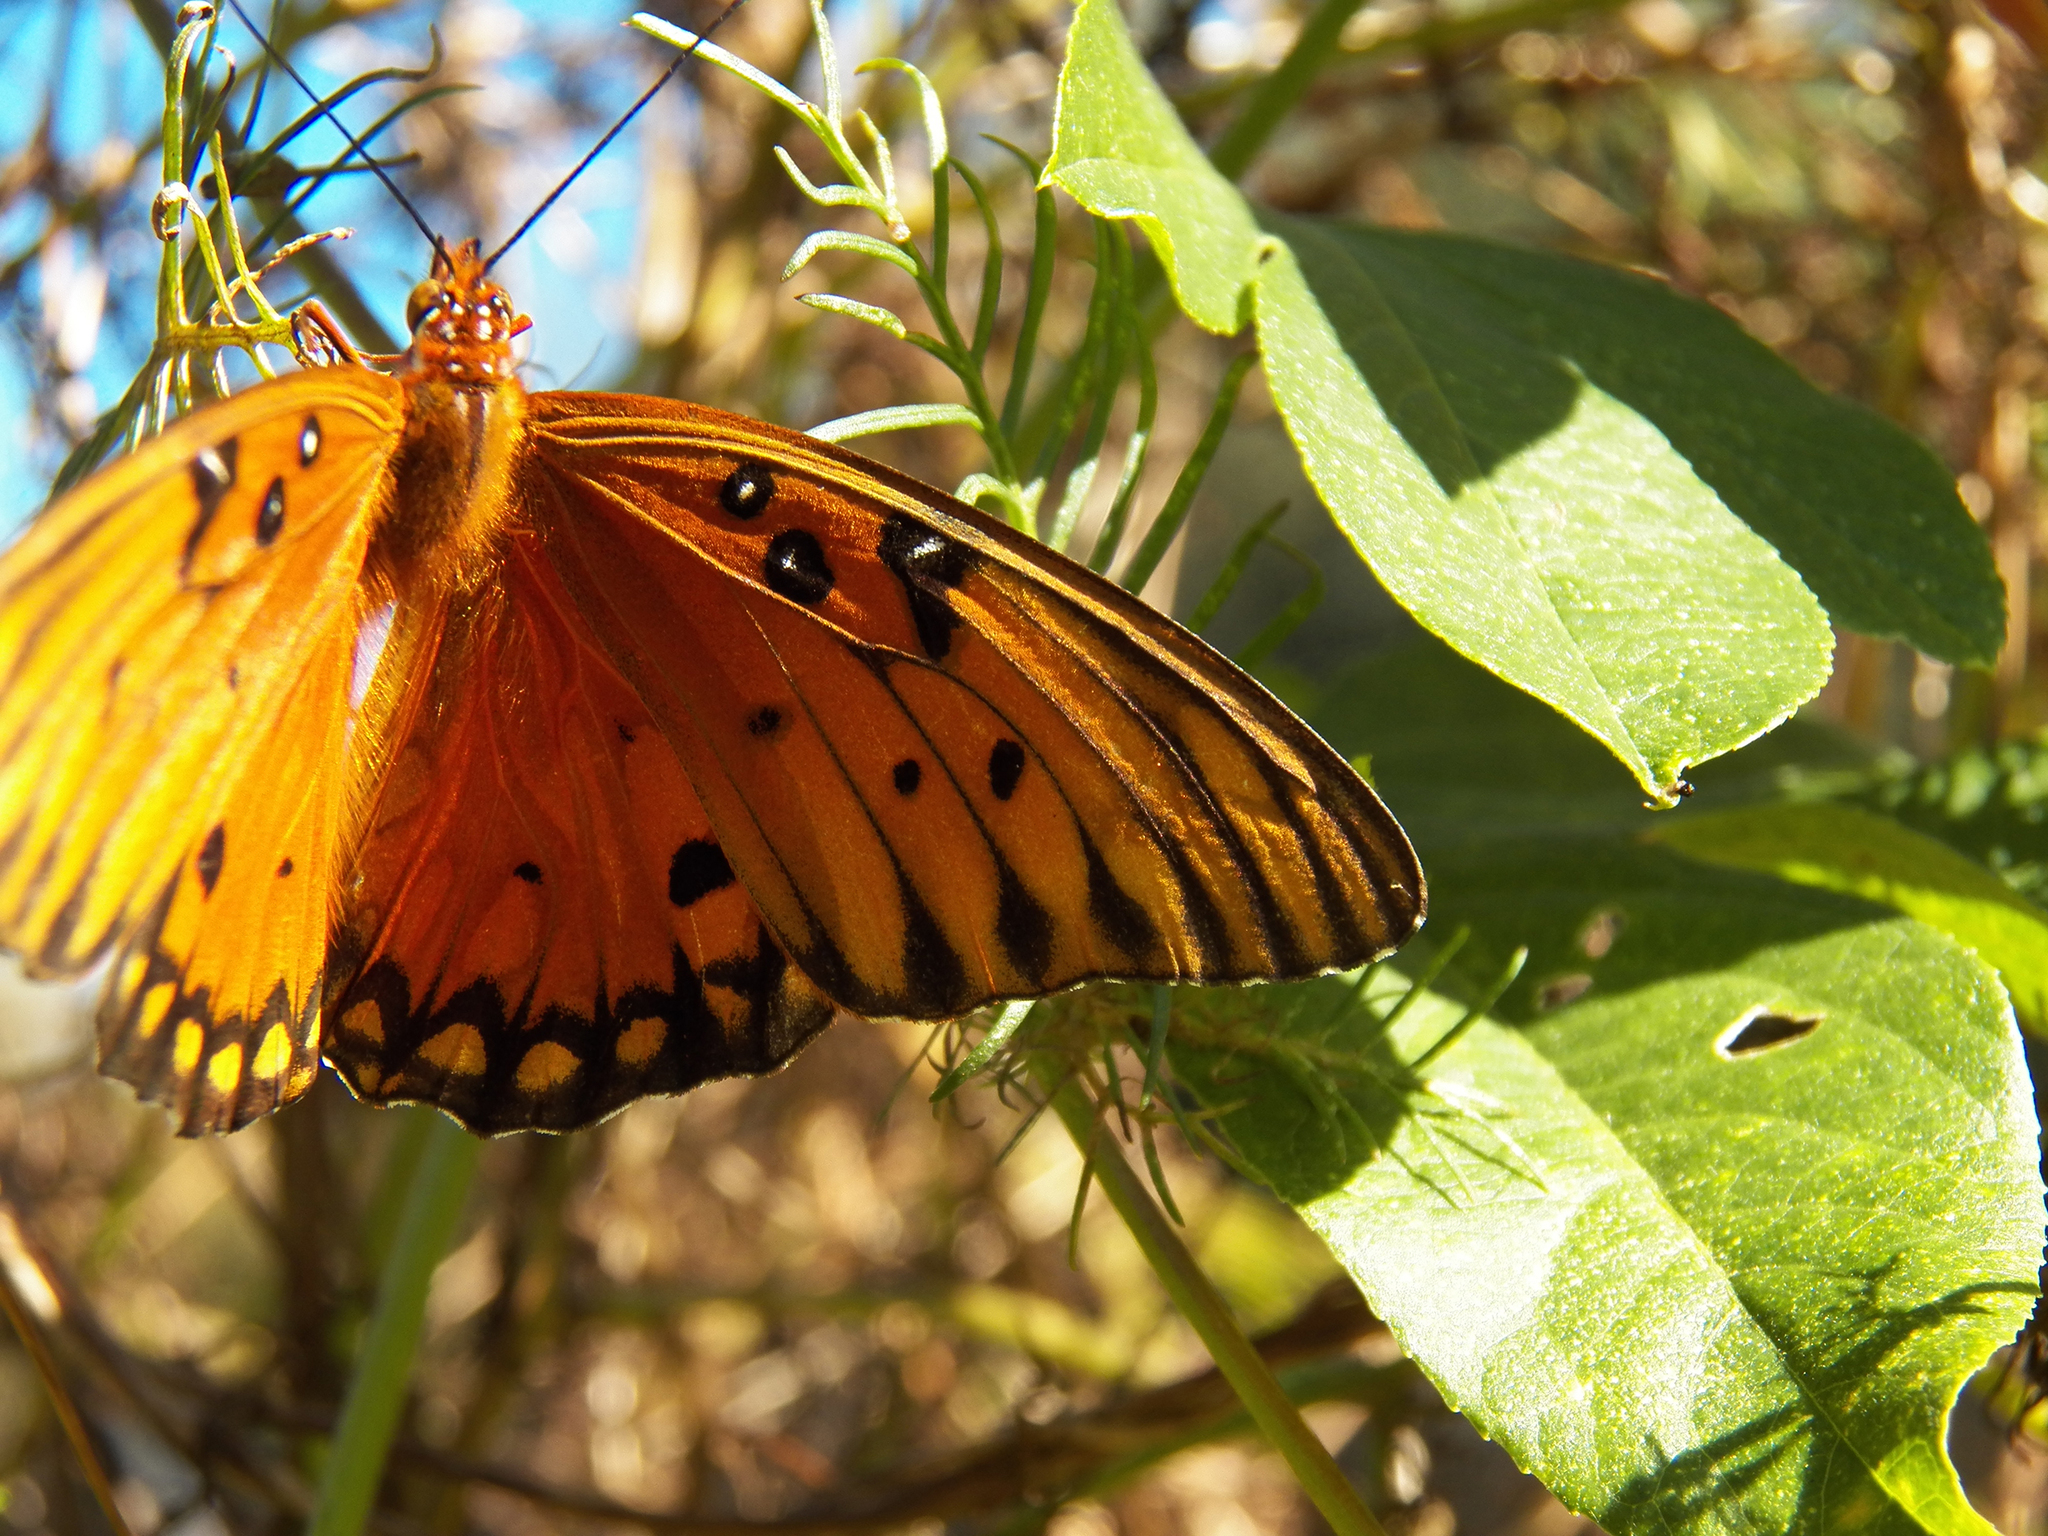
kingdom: Animalia
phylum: Arthropoda
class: Insecta
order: Lepidoptera
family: Nymphalidae
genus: Dione
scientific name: Dione vanillae
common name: Gulf fritillary
